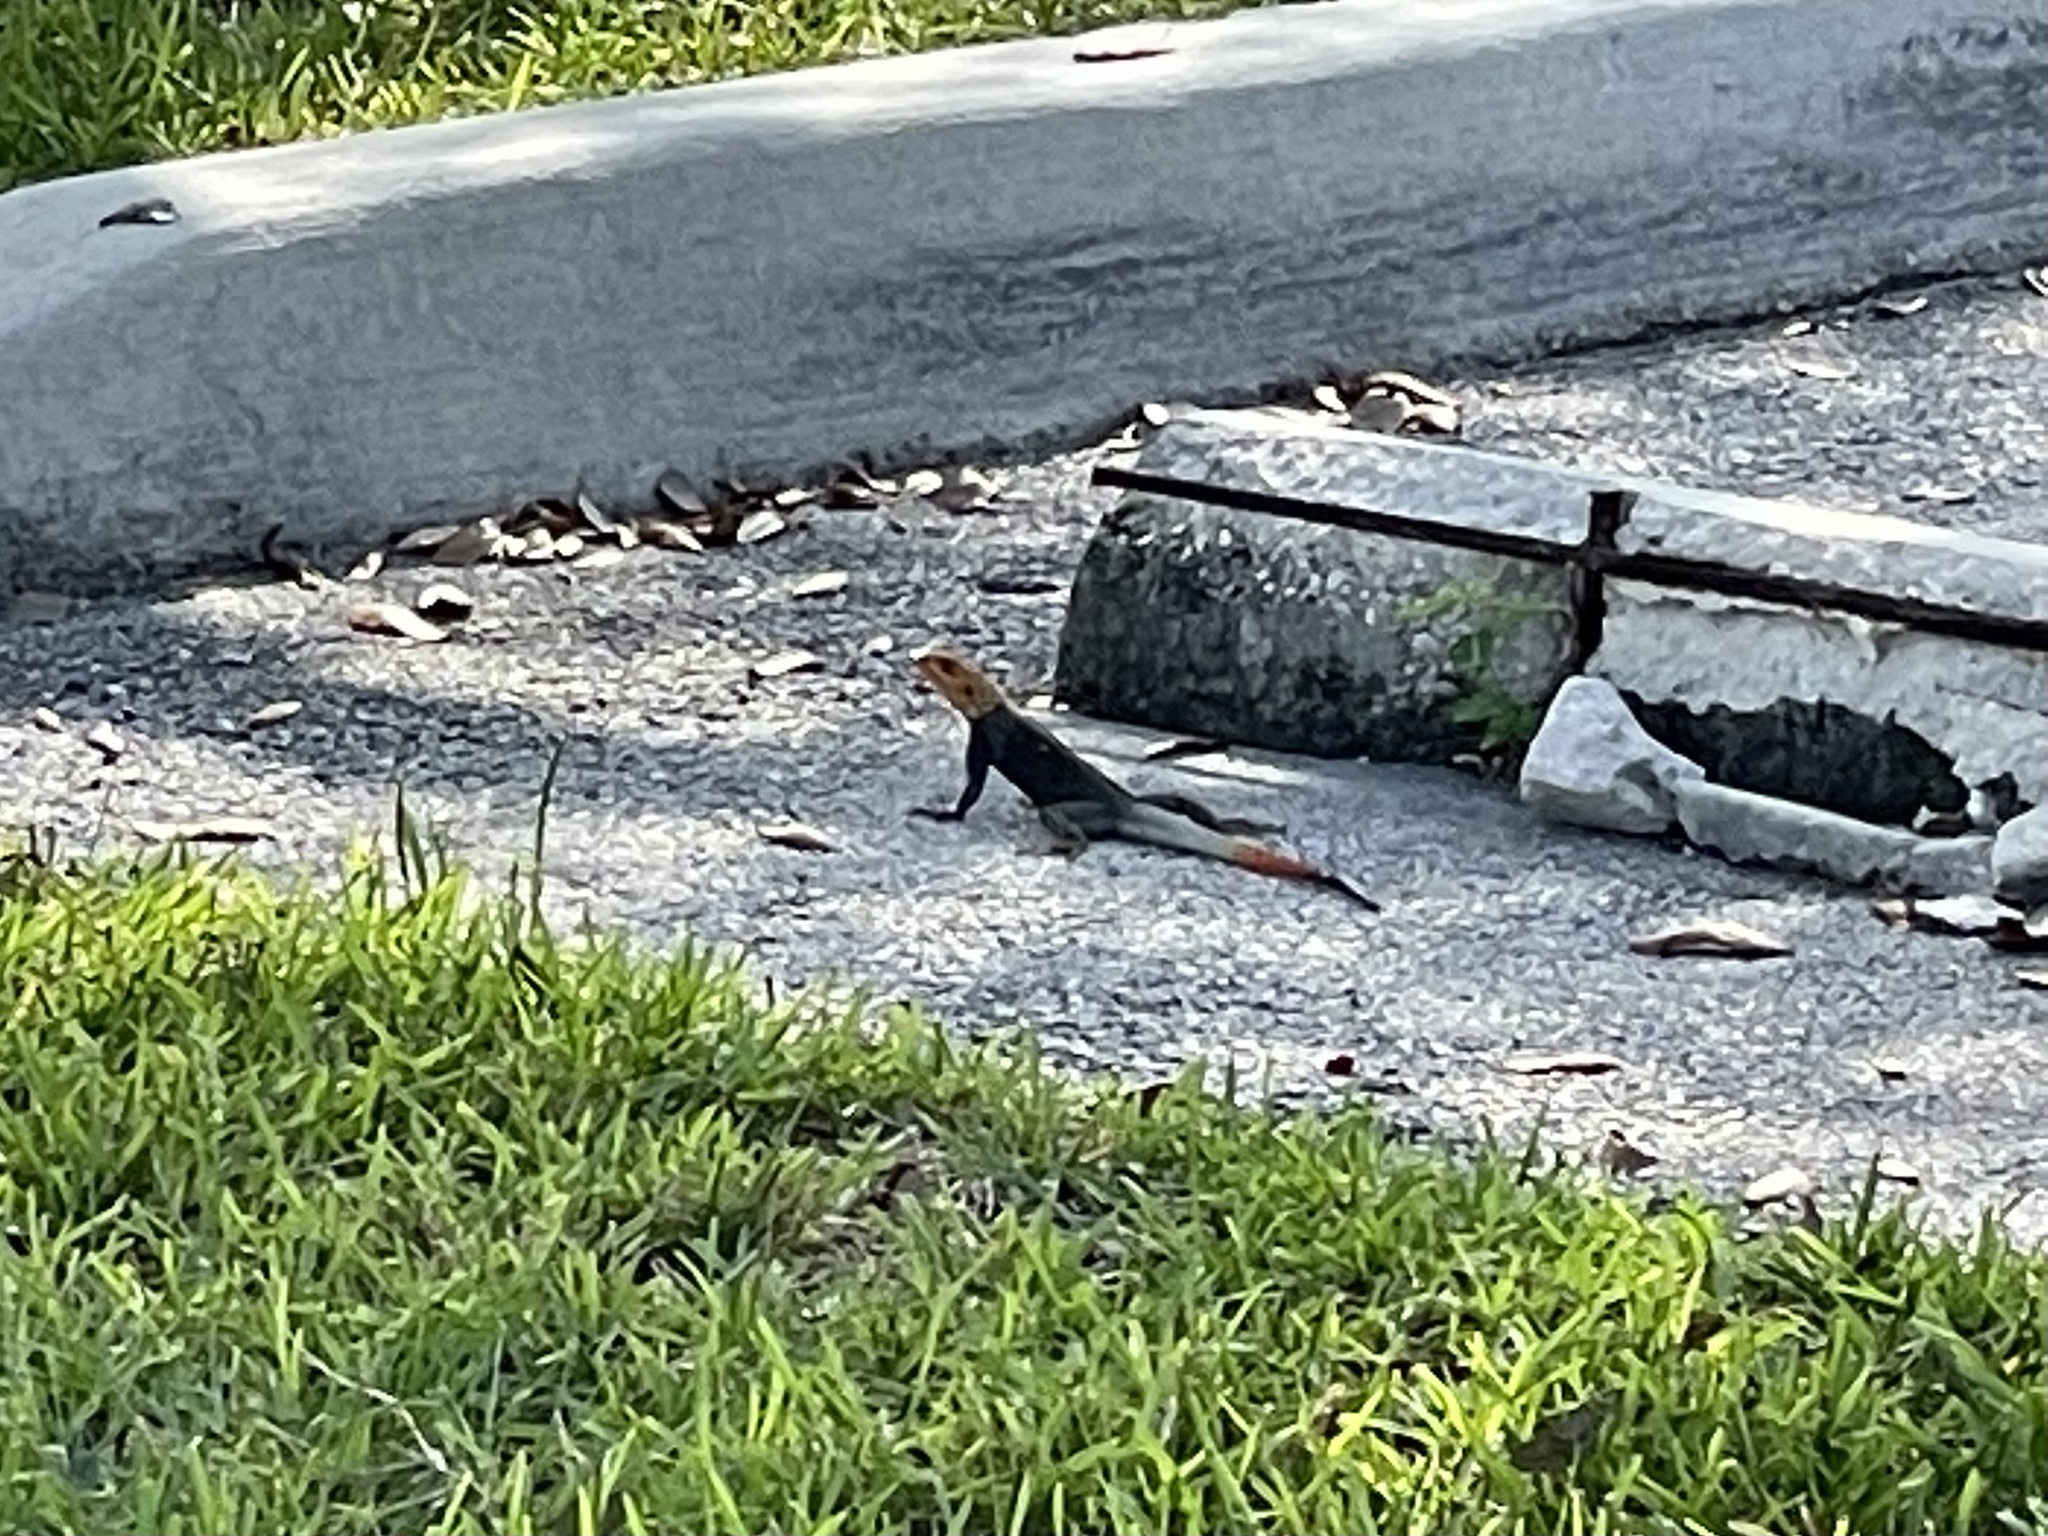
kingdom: Animalia
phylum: Chordata
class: Squamata
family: Agamidae
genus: Agama
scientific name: Agama picticauda
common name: Red-headed agama
